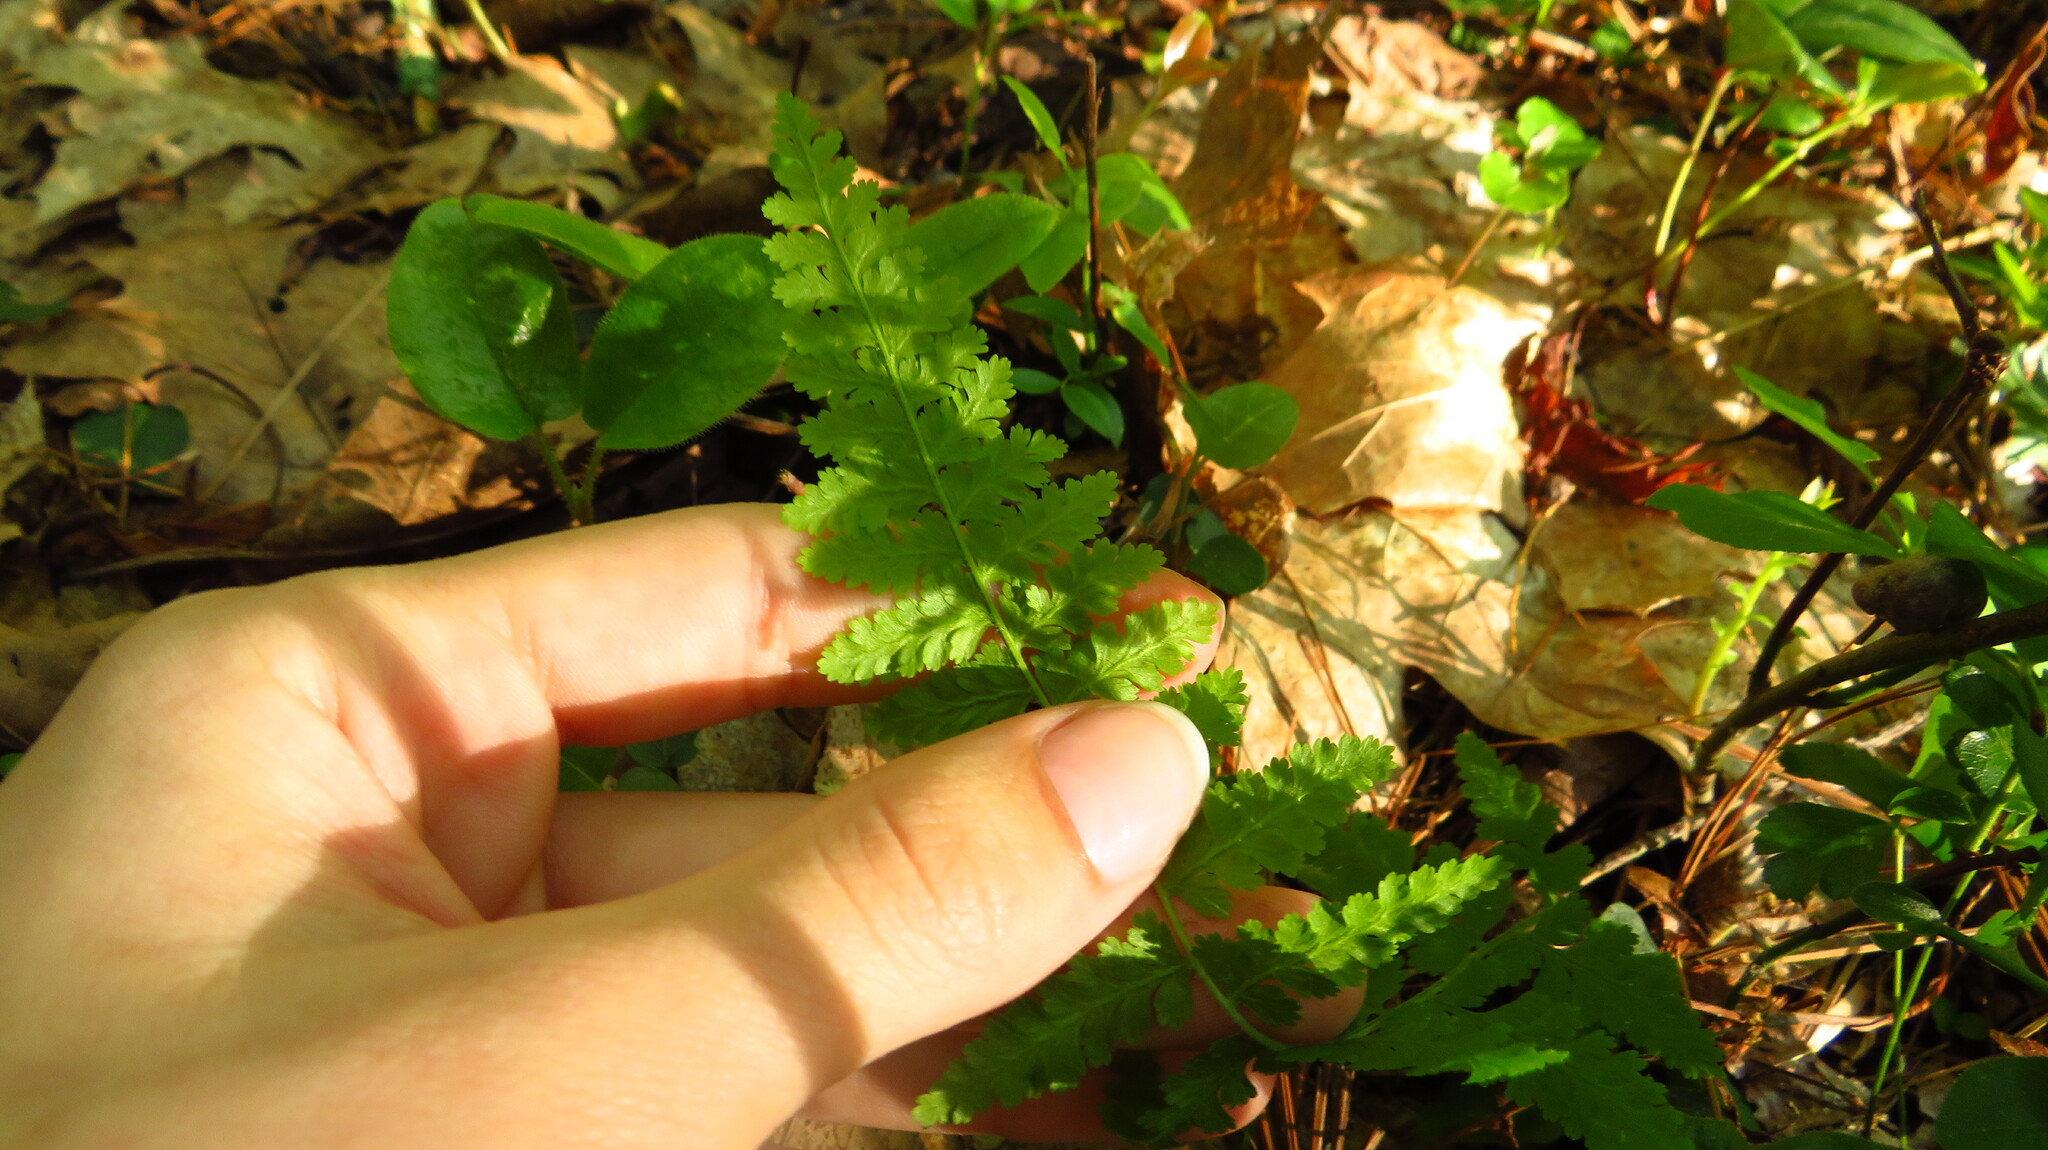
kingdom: Plantae
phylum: Tracheophyta
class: Polypodiopsida
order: Polypodiales
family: Dennstaedtiaceae
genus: Sitobolium
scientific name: Sitobolium punctilobum
